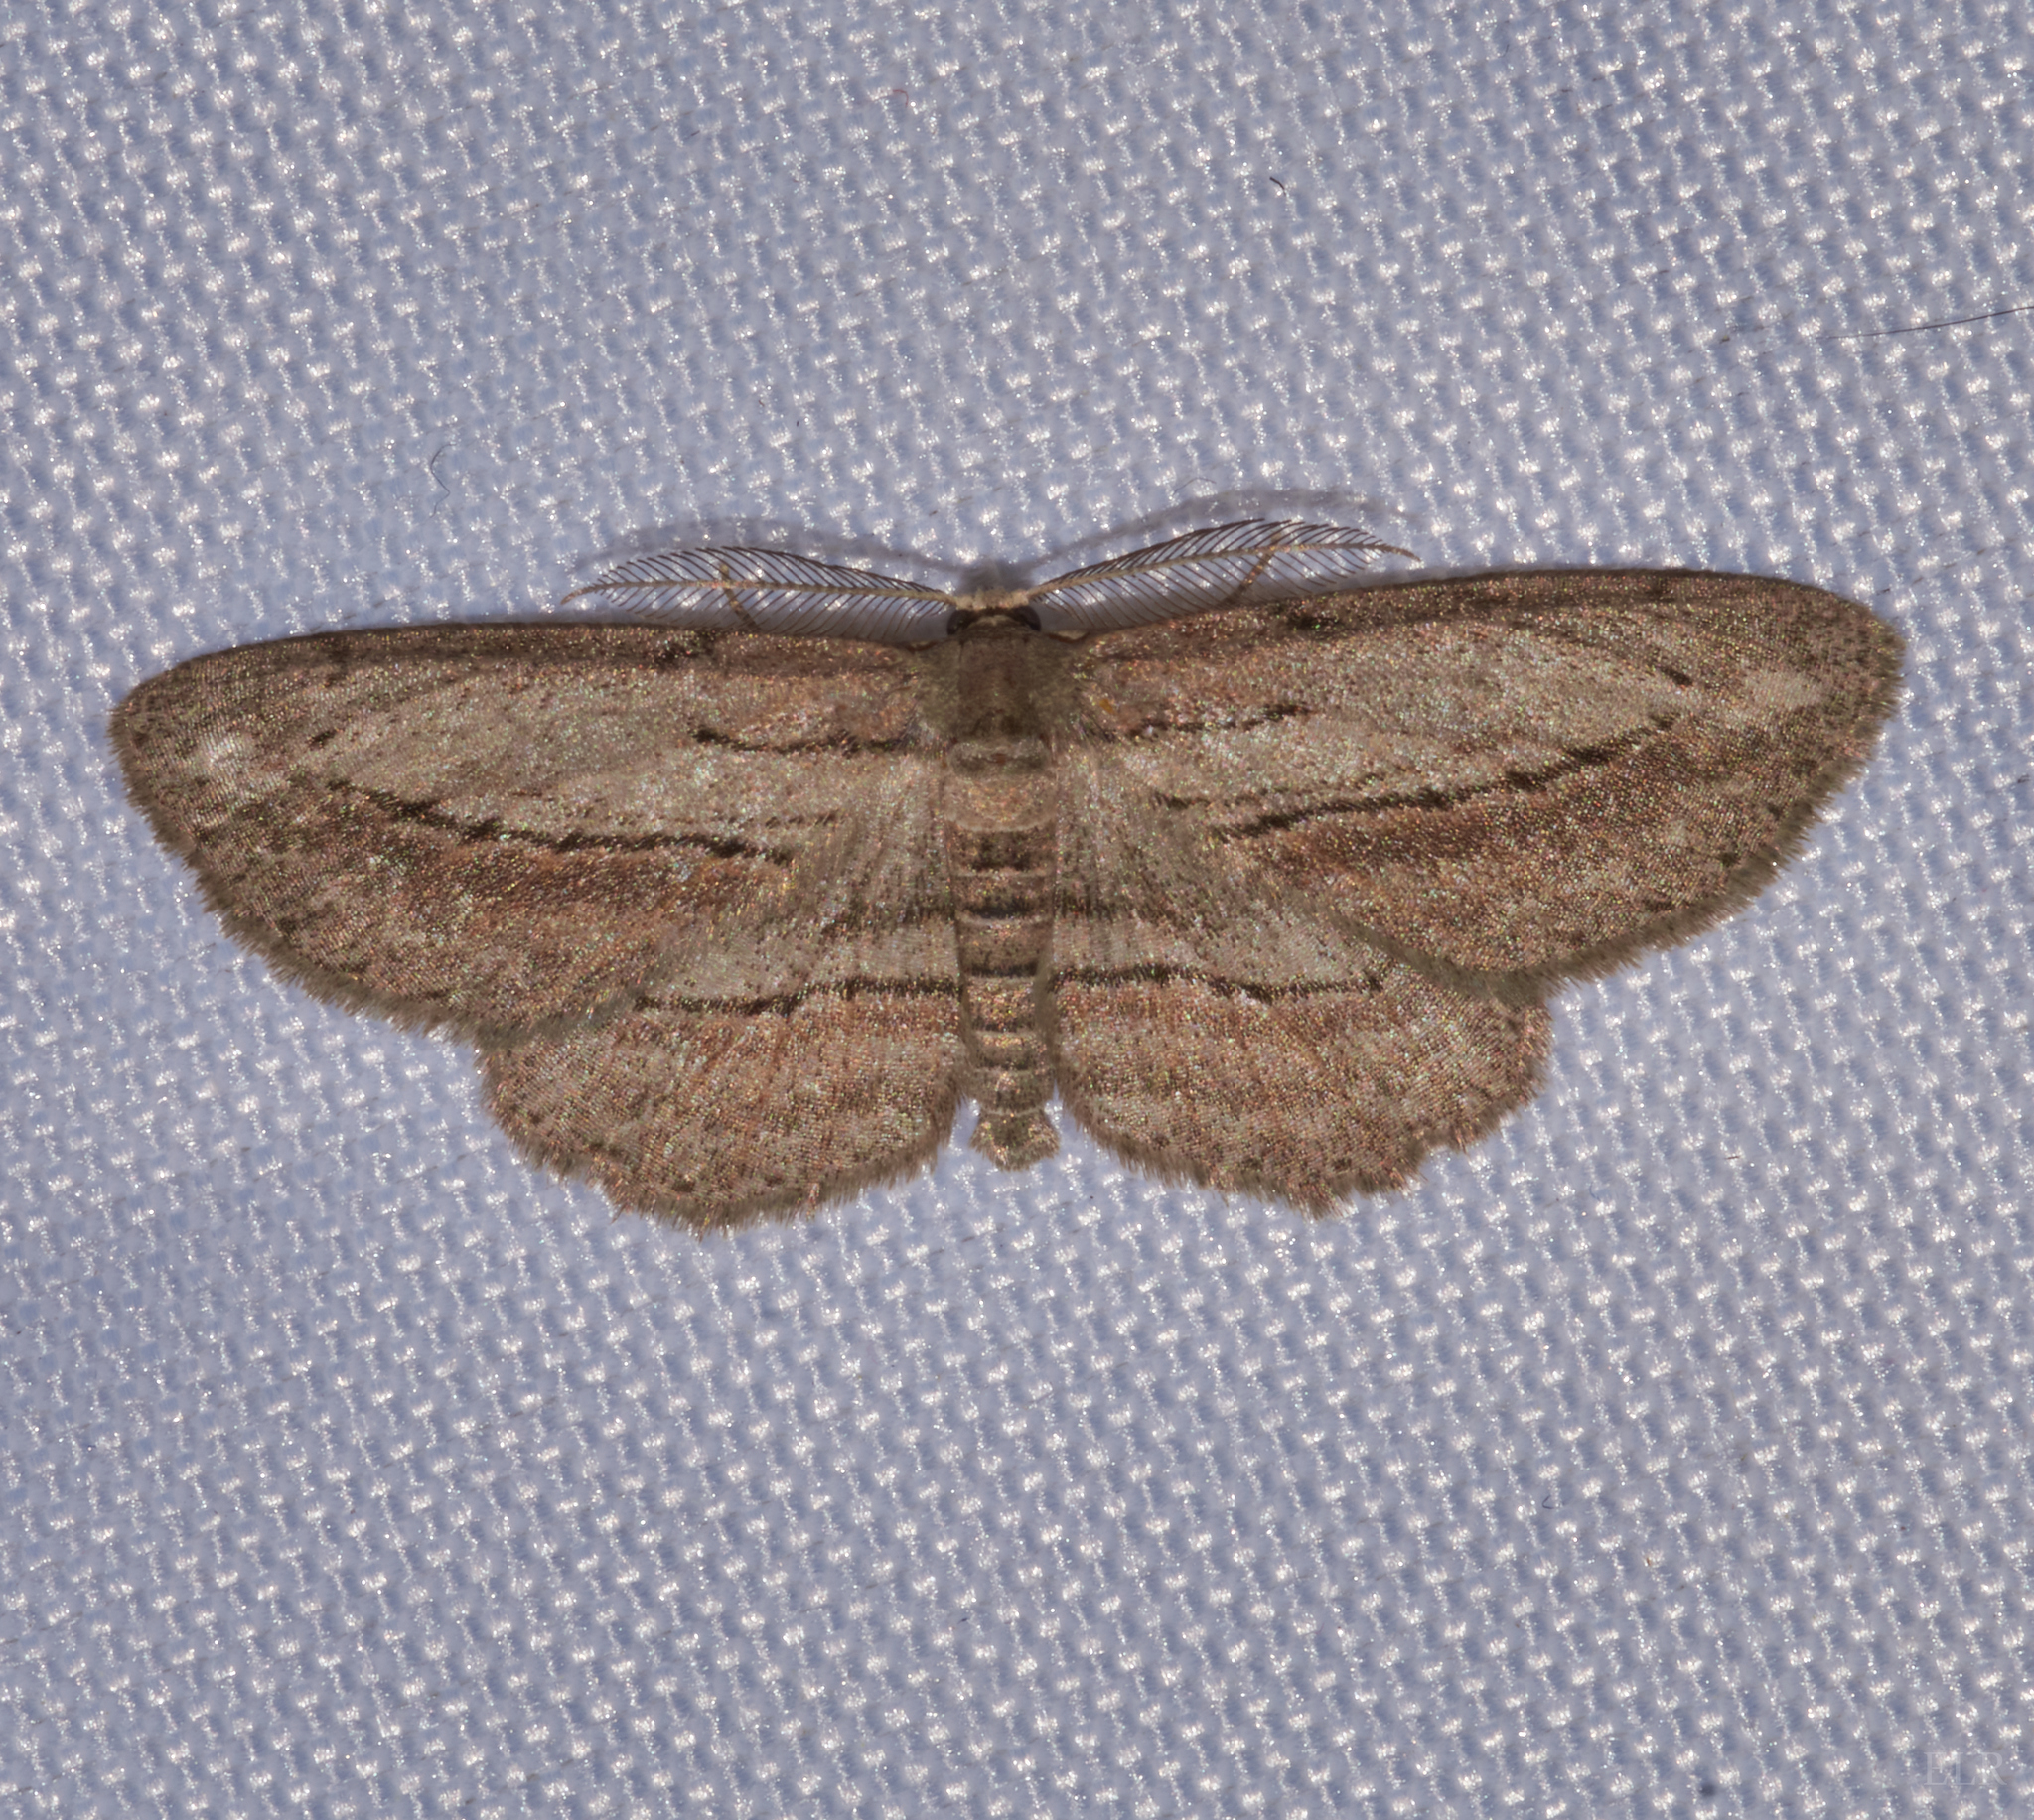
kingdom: Animalia
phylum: Arthropoda
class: Insecta
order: Lepidoptera
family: Geometridae
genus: Glena
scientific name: Glena plumosaria
